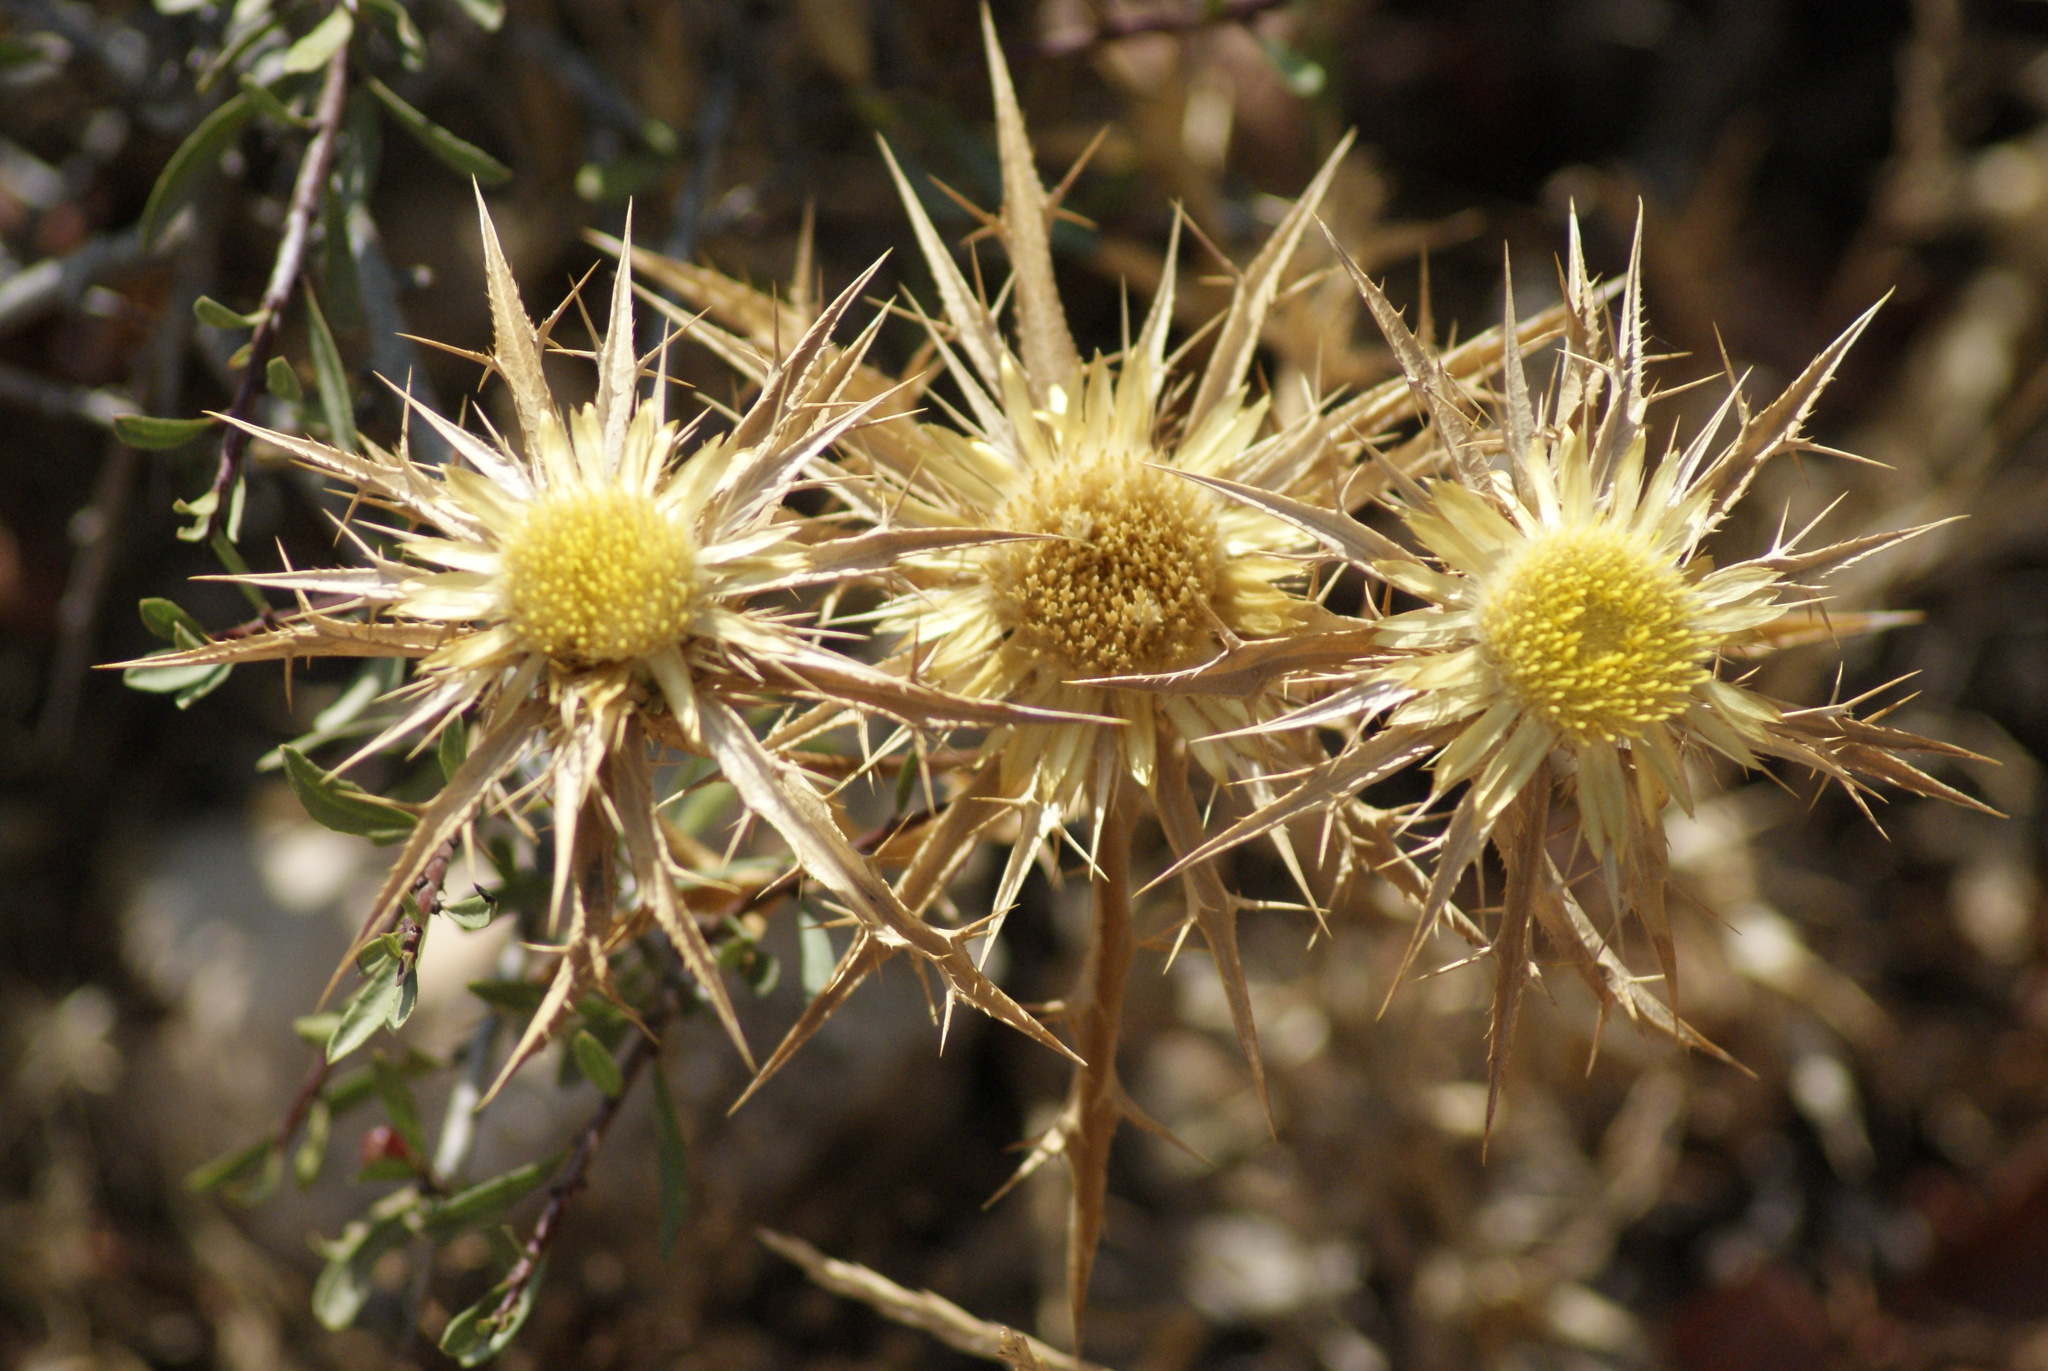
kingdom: Plantae
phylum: Tracheophyta
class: Magnoliopsida
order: Asterales
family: Asteraceae
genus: Carlina
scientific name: Carlina involucrata
